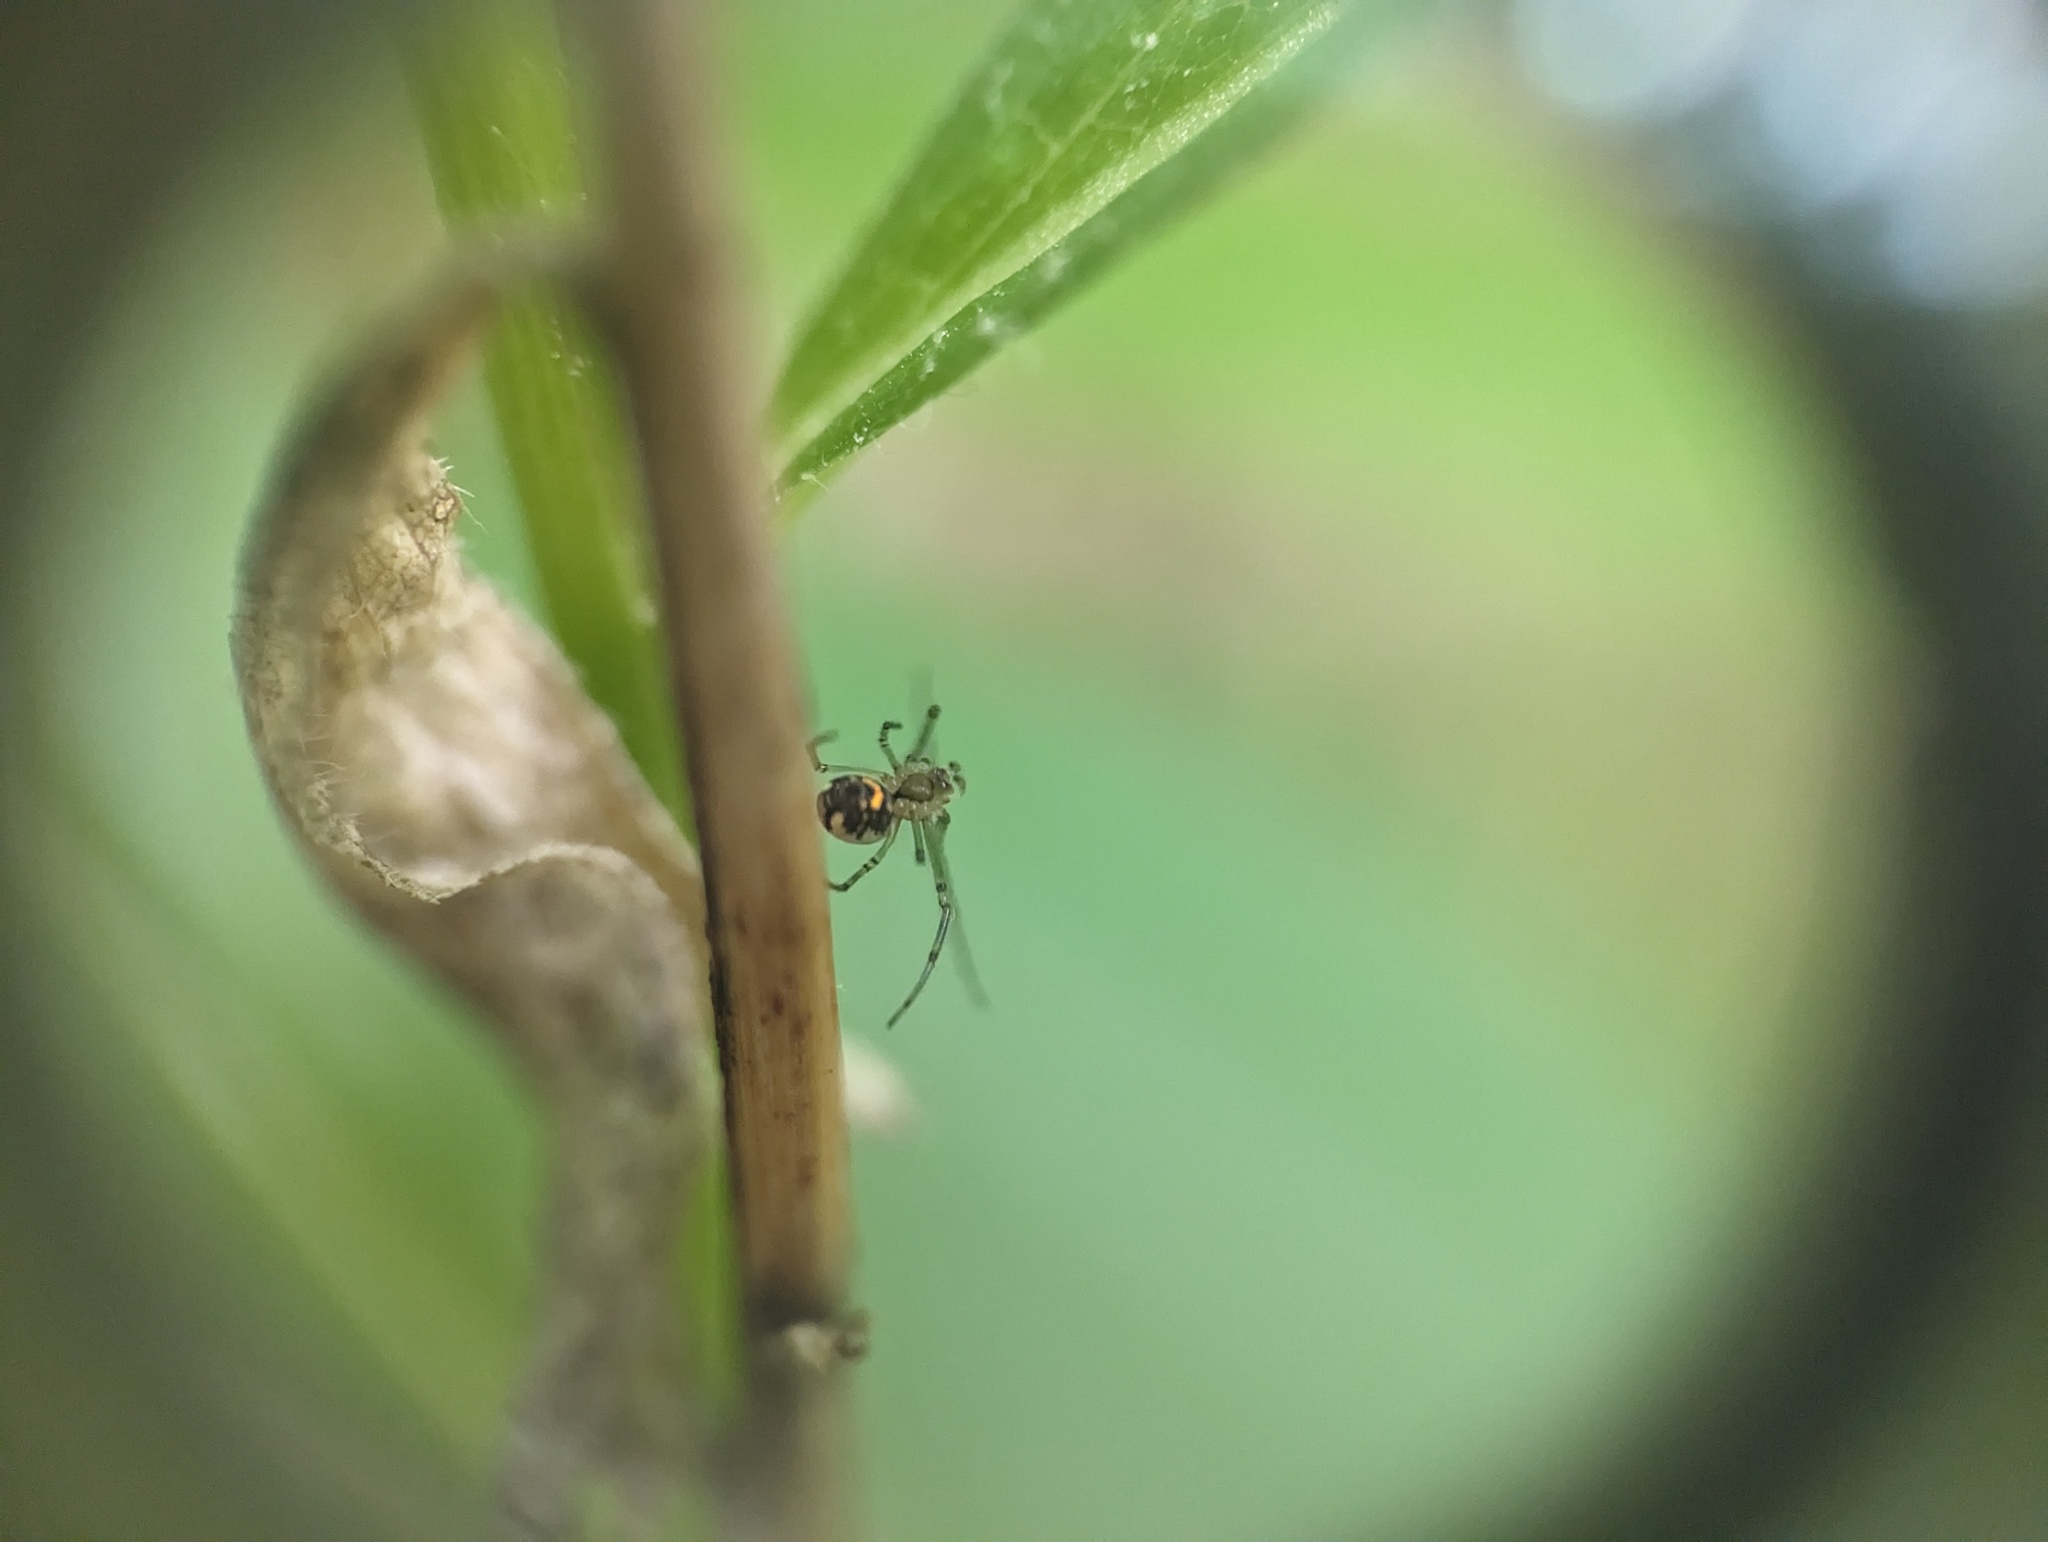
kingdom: Animalia
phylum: Arthropoda
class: Arachnida
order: Araneae
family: Tetragnathidae
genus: Leucauge
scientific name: Leucauge venusta
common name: Longjawed orb weavers
